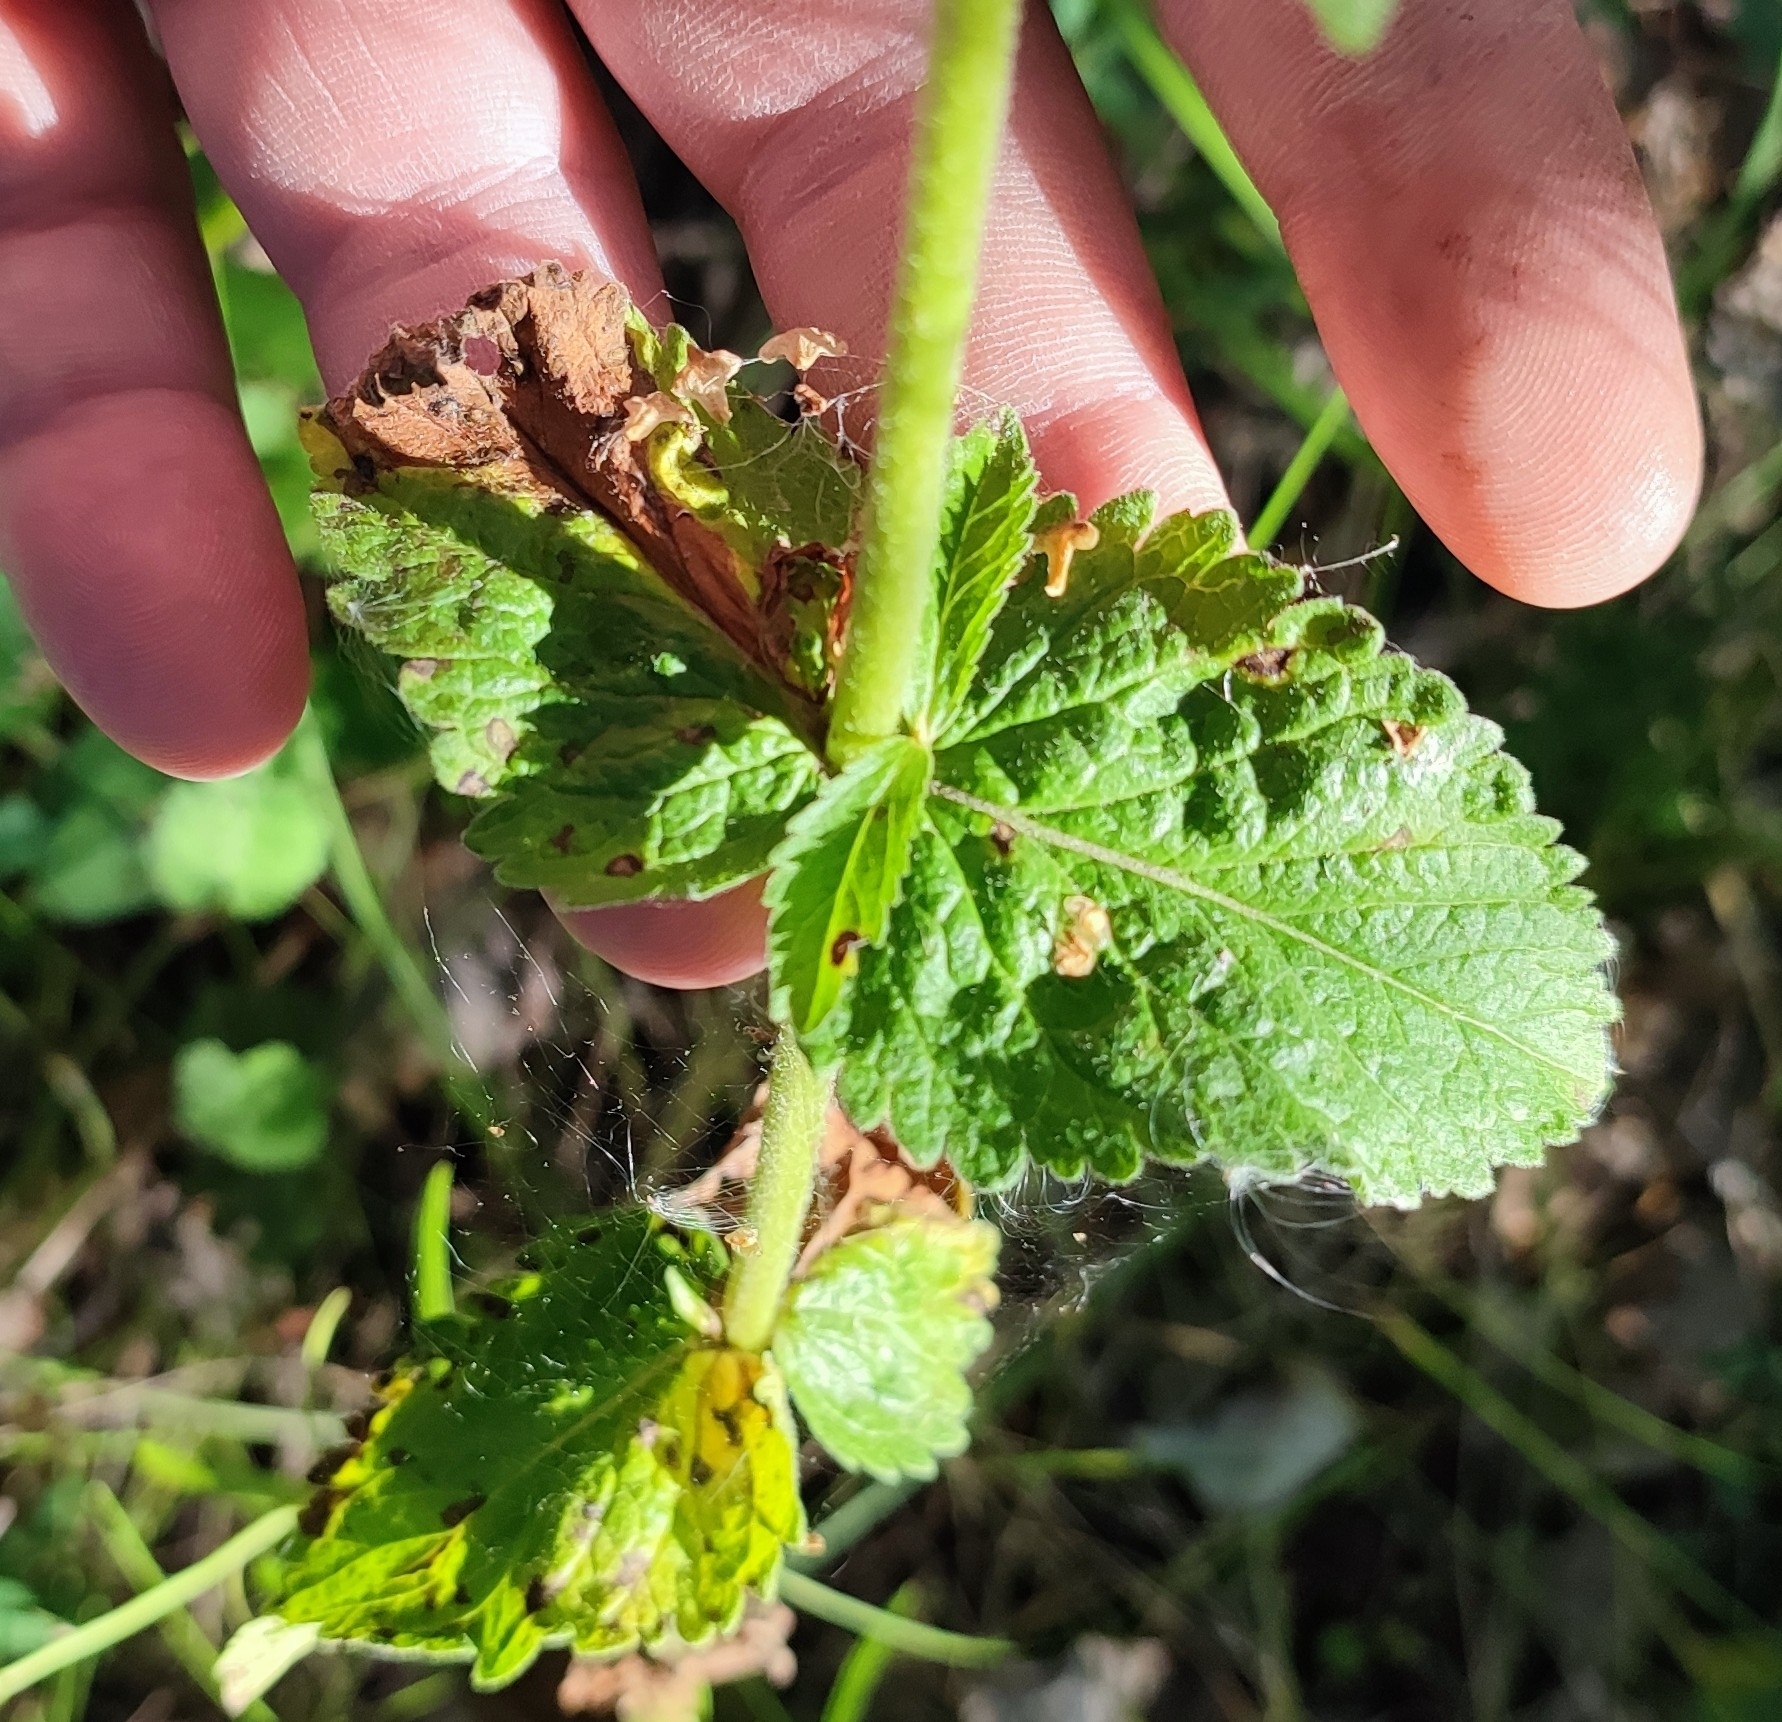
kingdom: Plantae
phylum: Tracheophyta
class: Magnoliopsida
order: Lamiales
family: Plantaginaceae
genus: Veronica
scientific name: Veronica teucrium
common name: Large speedwell
